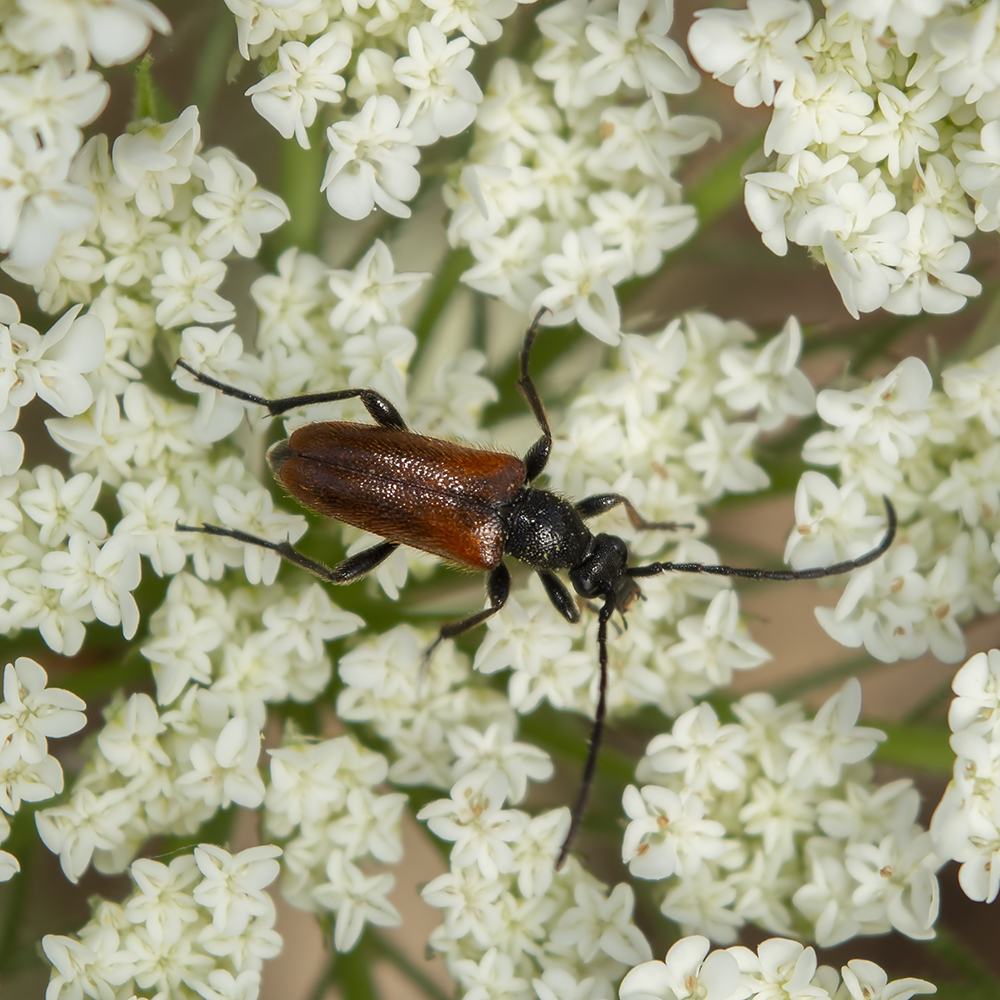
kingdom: Animalia
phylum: Arthropoda
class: Insecta
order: Coleoptera
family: Cerambycidae
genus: Pseudovadonia
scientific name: Pseudovadonia livida
